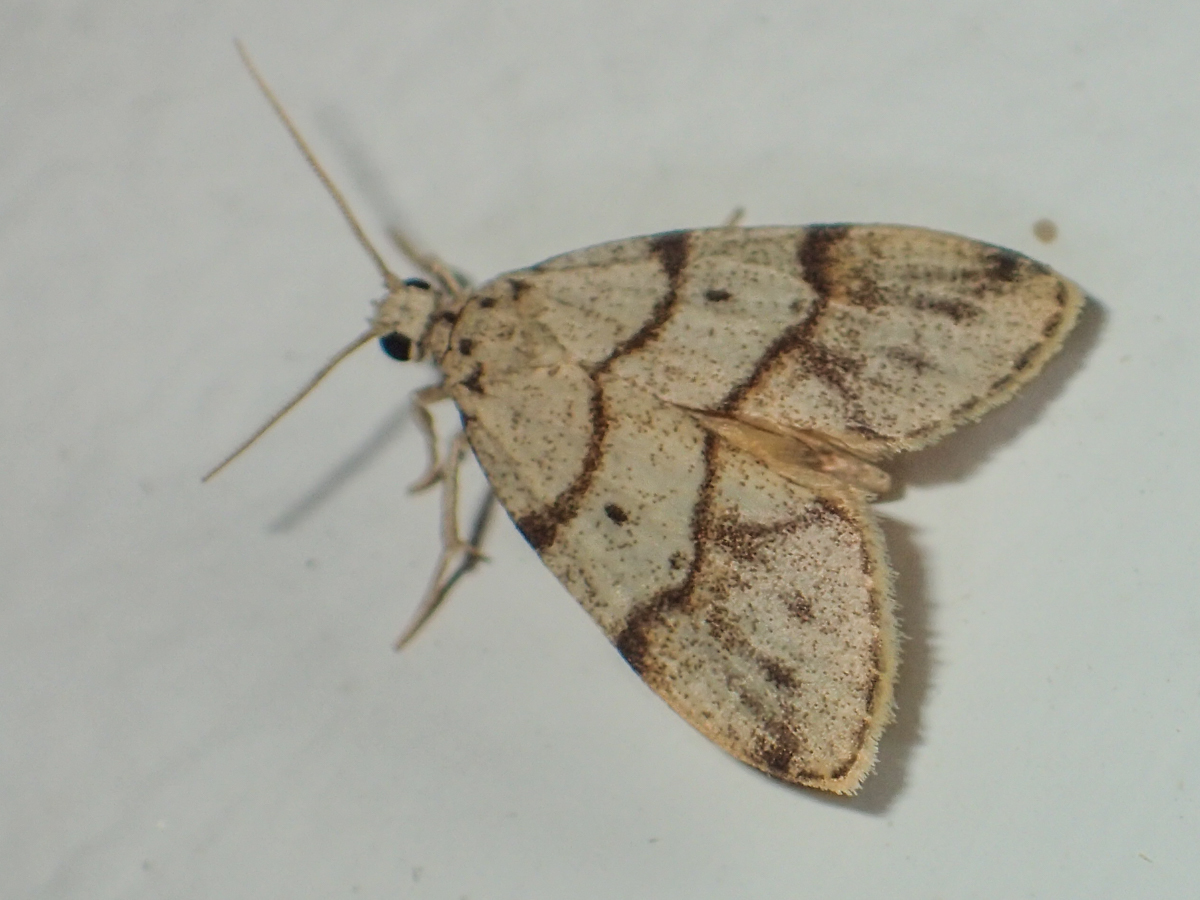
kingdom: Animalia
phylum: Arthropoda
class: Insecta
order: Lepidoptera
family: Erebidae
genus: Holocraspedon
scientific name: Holocraspedon bilineata
